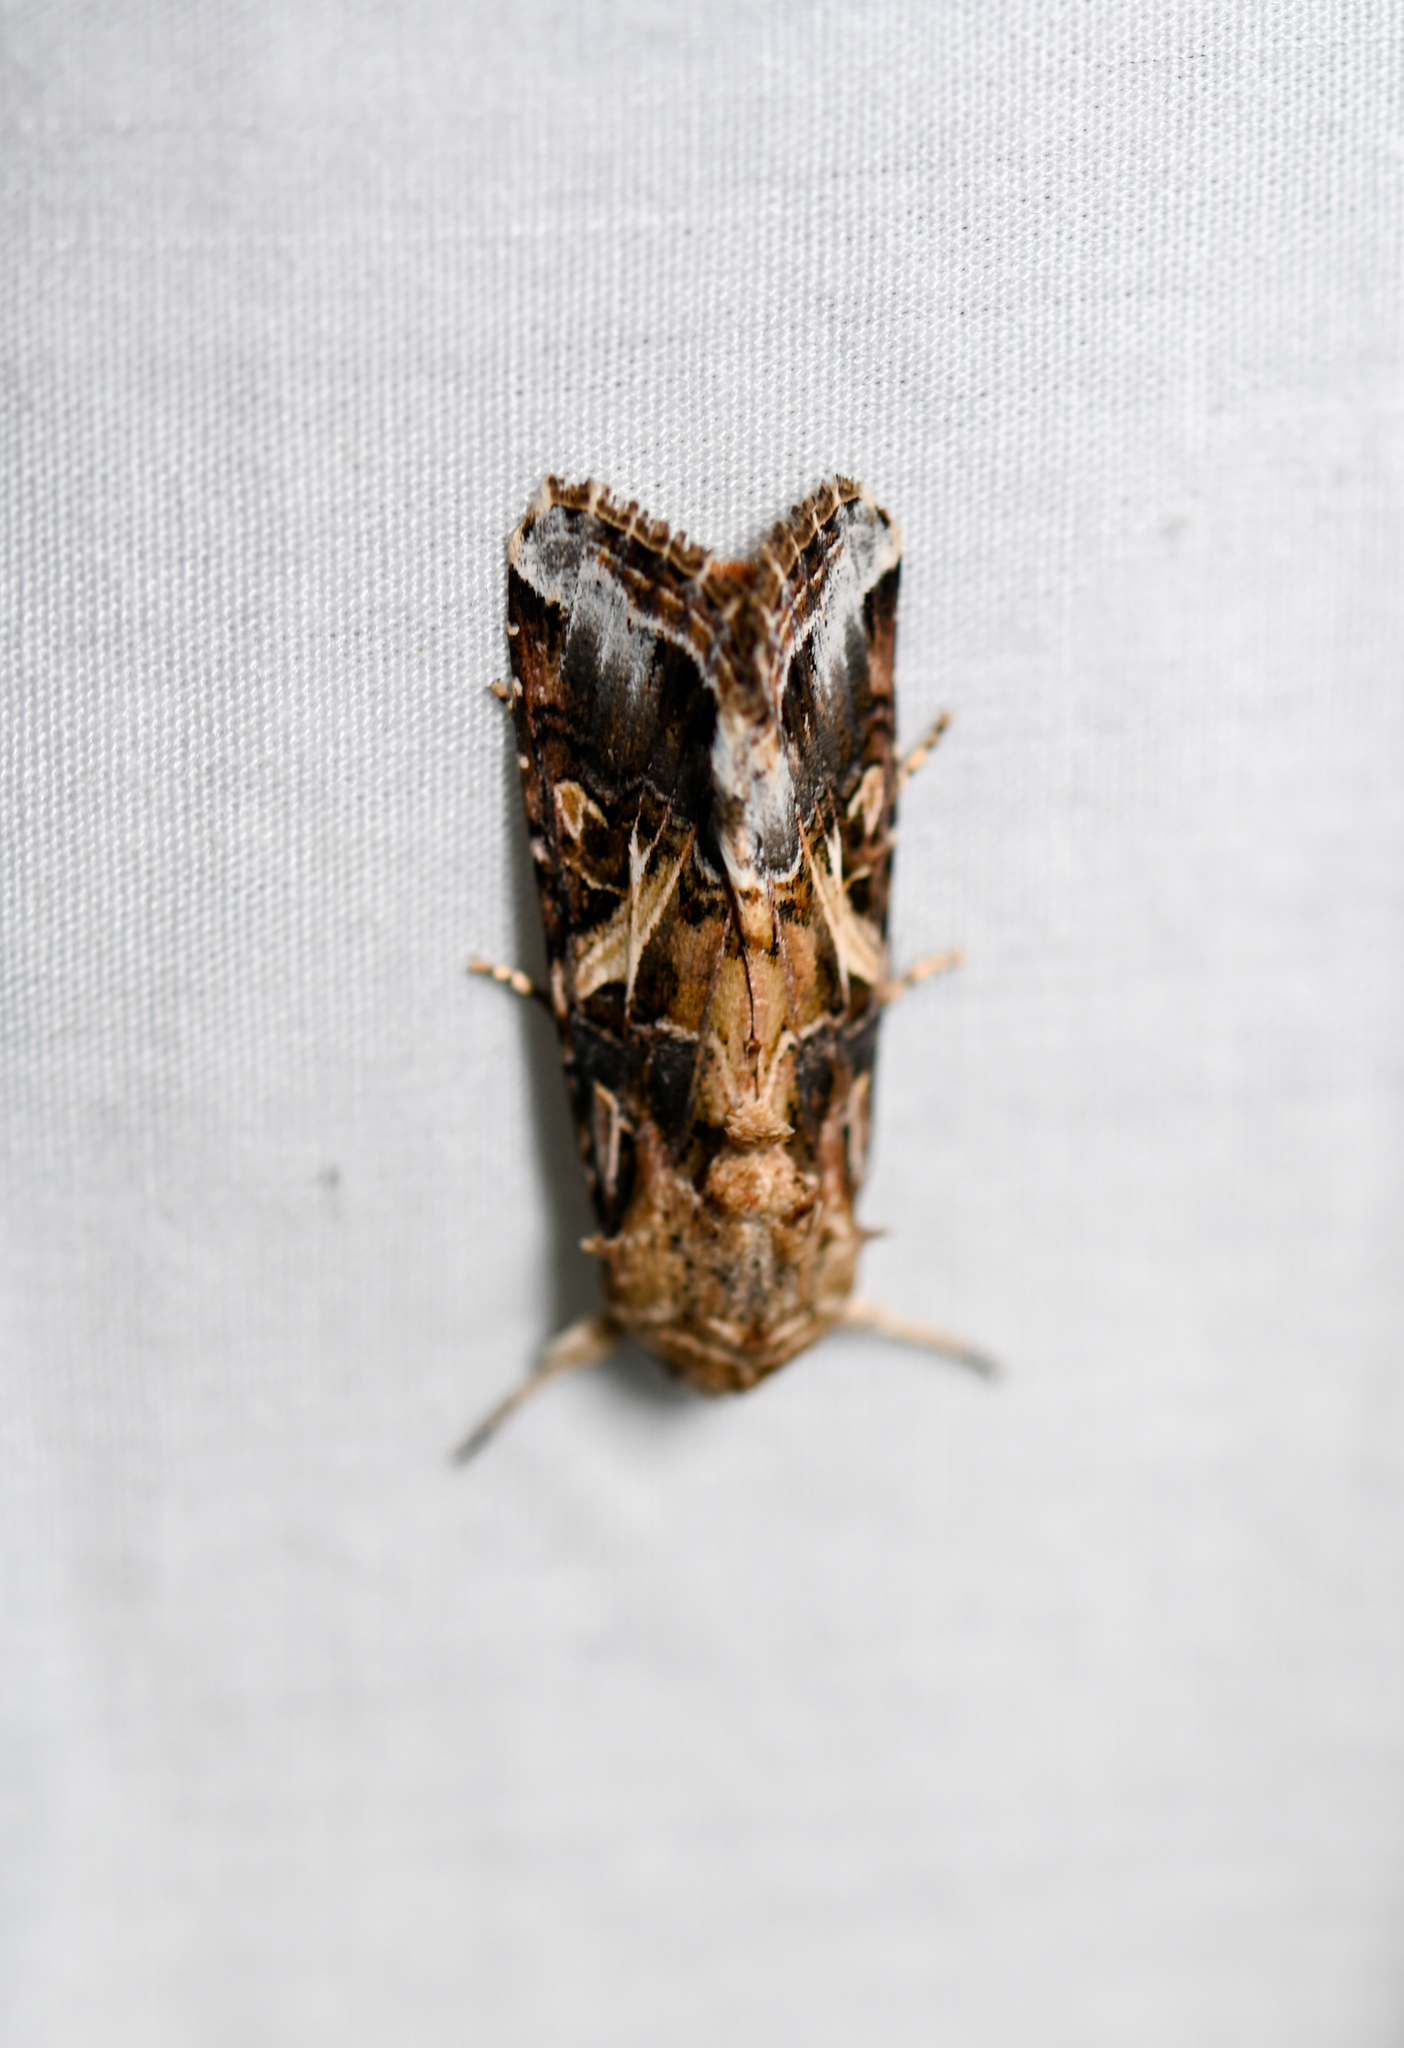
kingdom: Animalia
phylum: Arthropoda
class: Insecta
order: Lepidoptera
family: Noctuidae
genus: Spodoptera
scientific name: Spodoptera ornithogalli
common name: Yellow-striped armyworm
